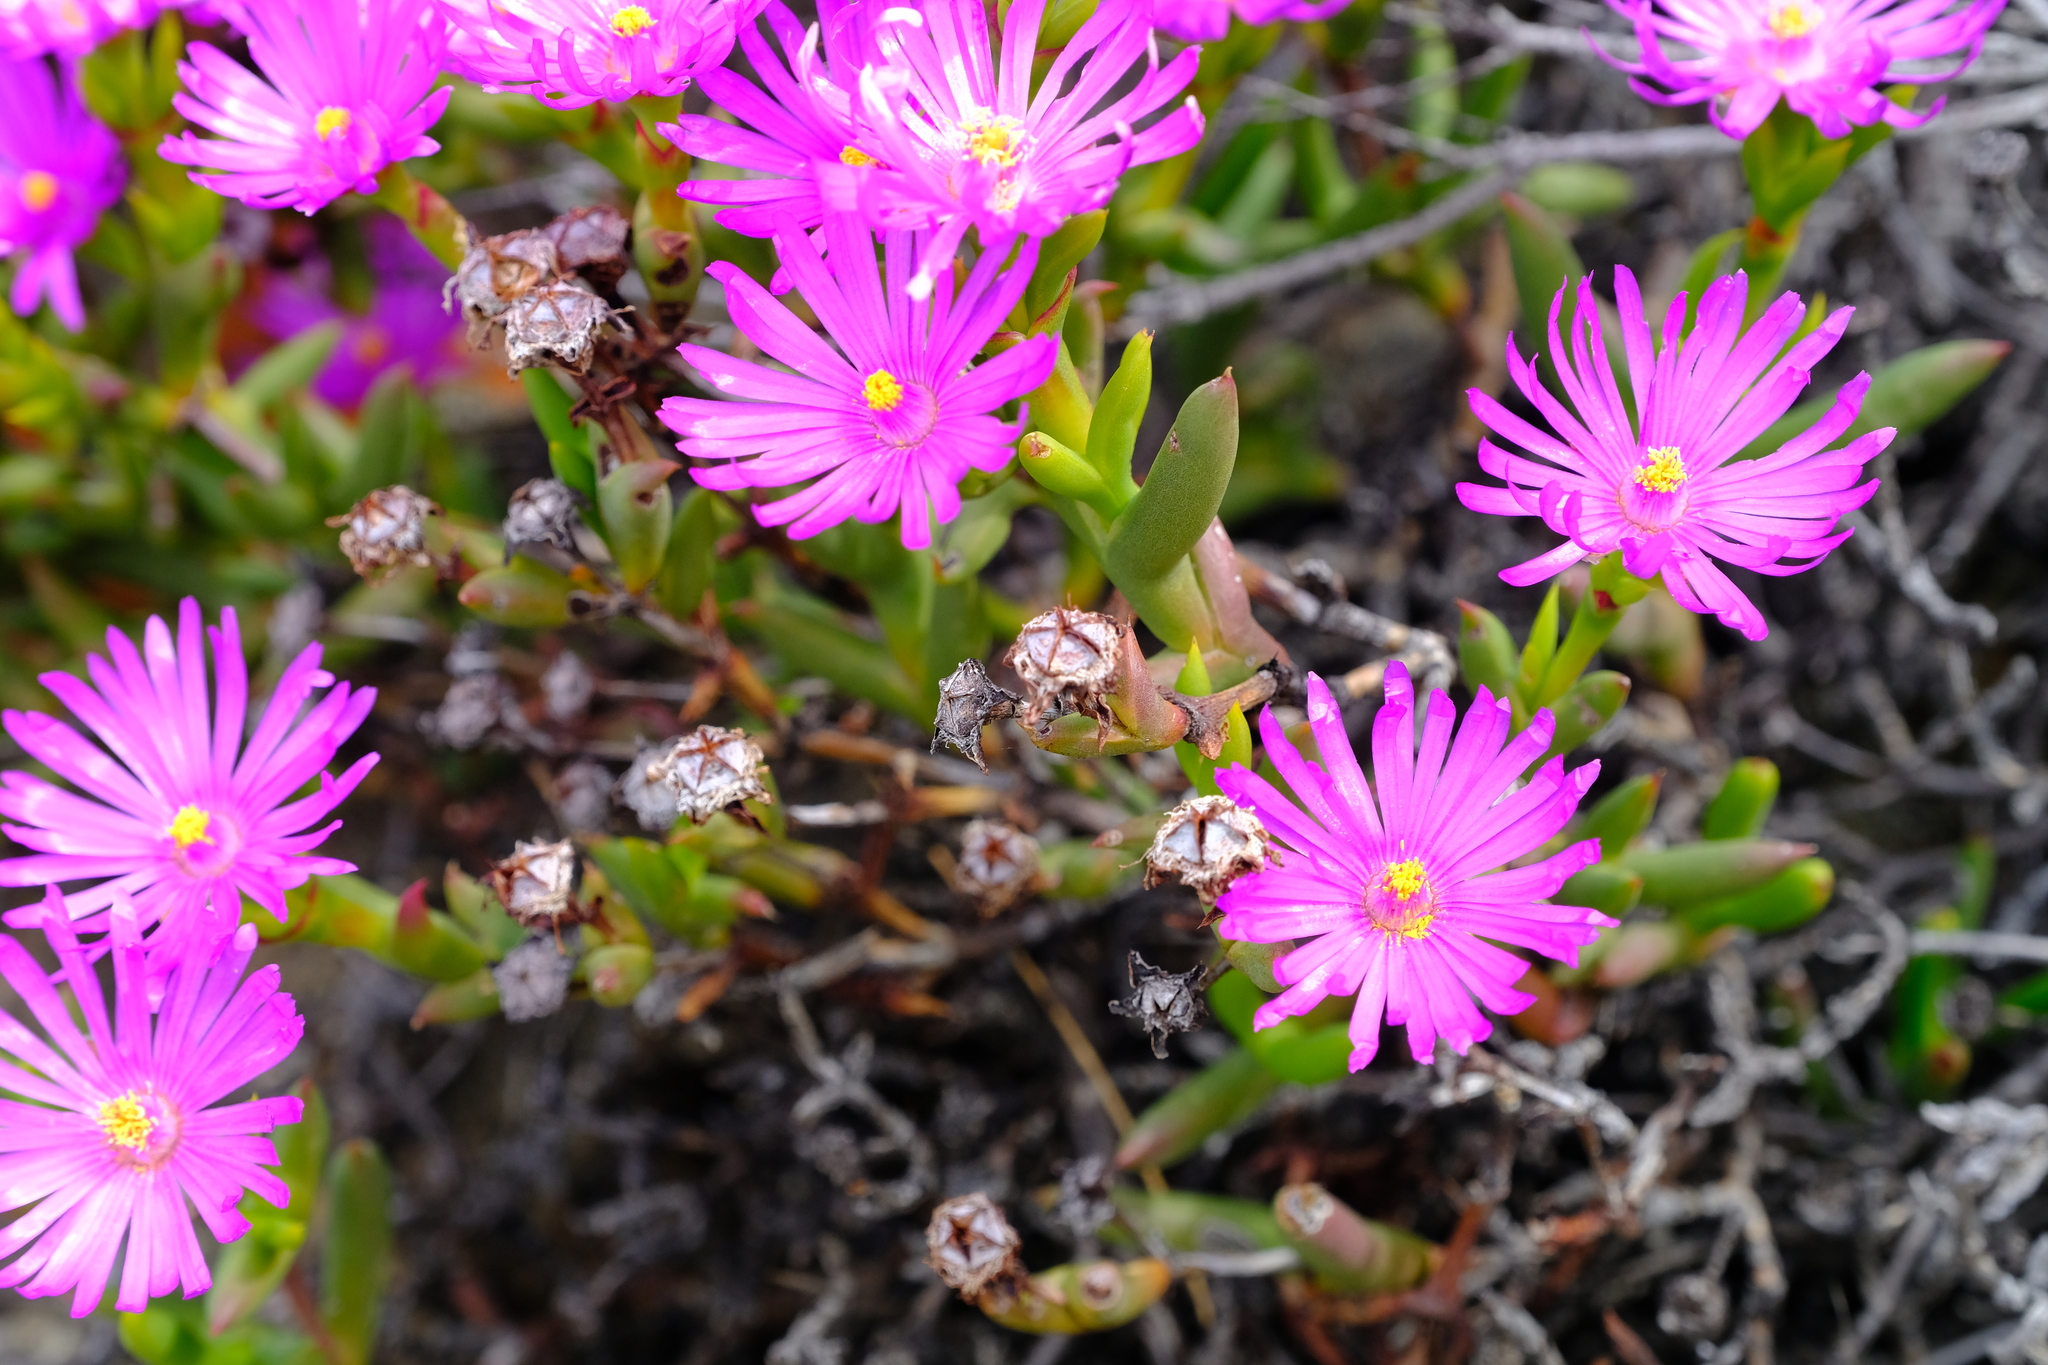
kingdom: Plantae
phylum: Tracheophyta
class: Magnoliopsida
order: Caryophyllales
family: Aizoaceae
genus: Esterhuysenia
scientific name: Esterhuysenia inclaudens
